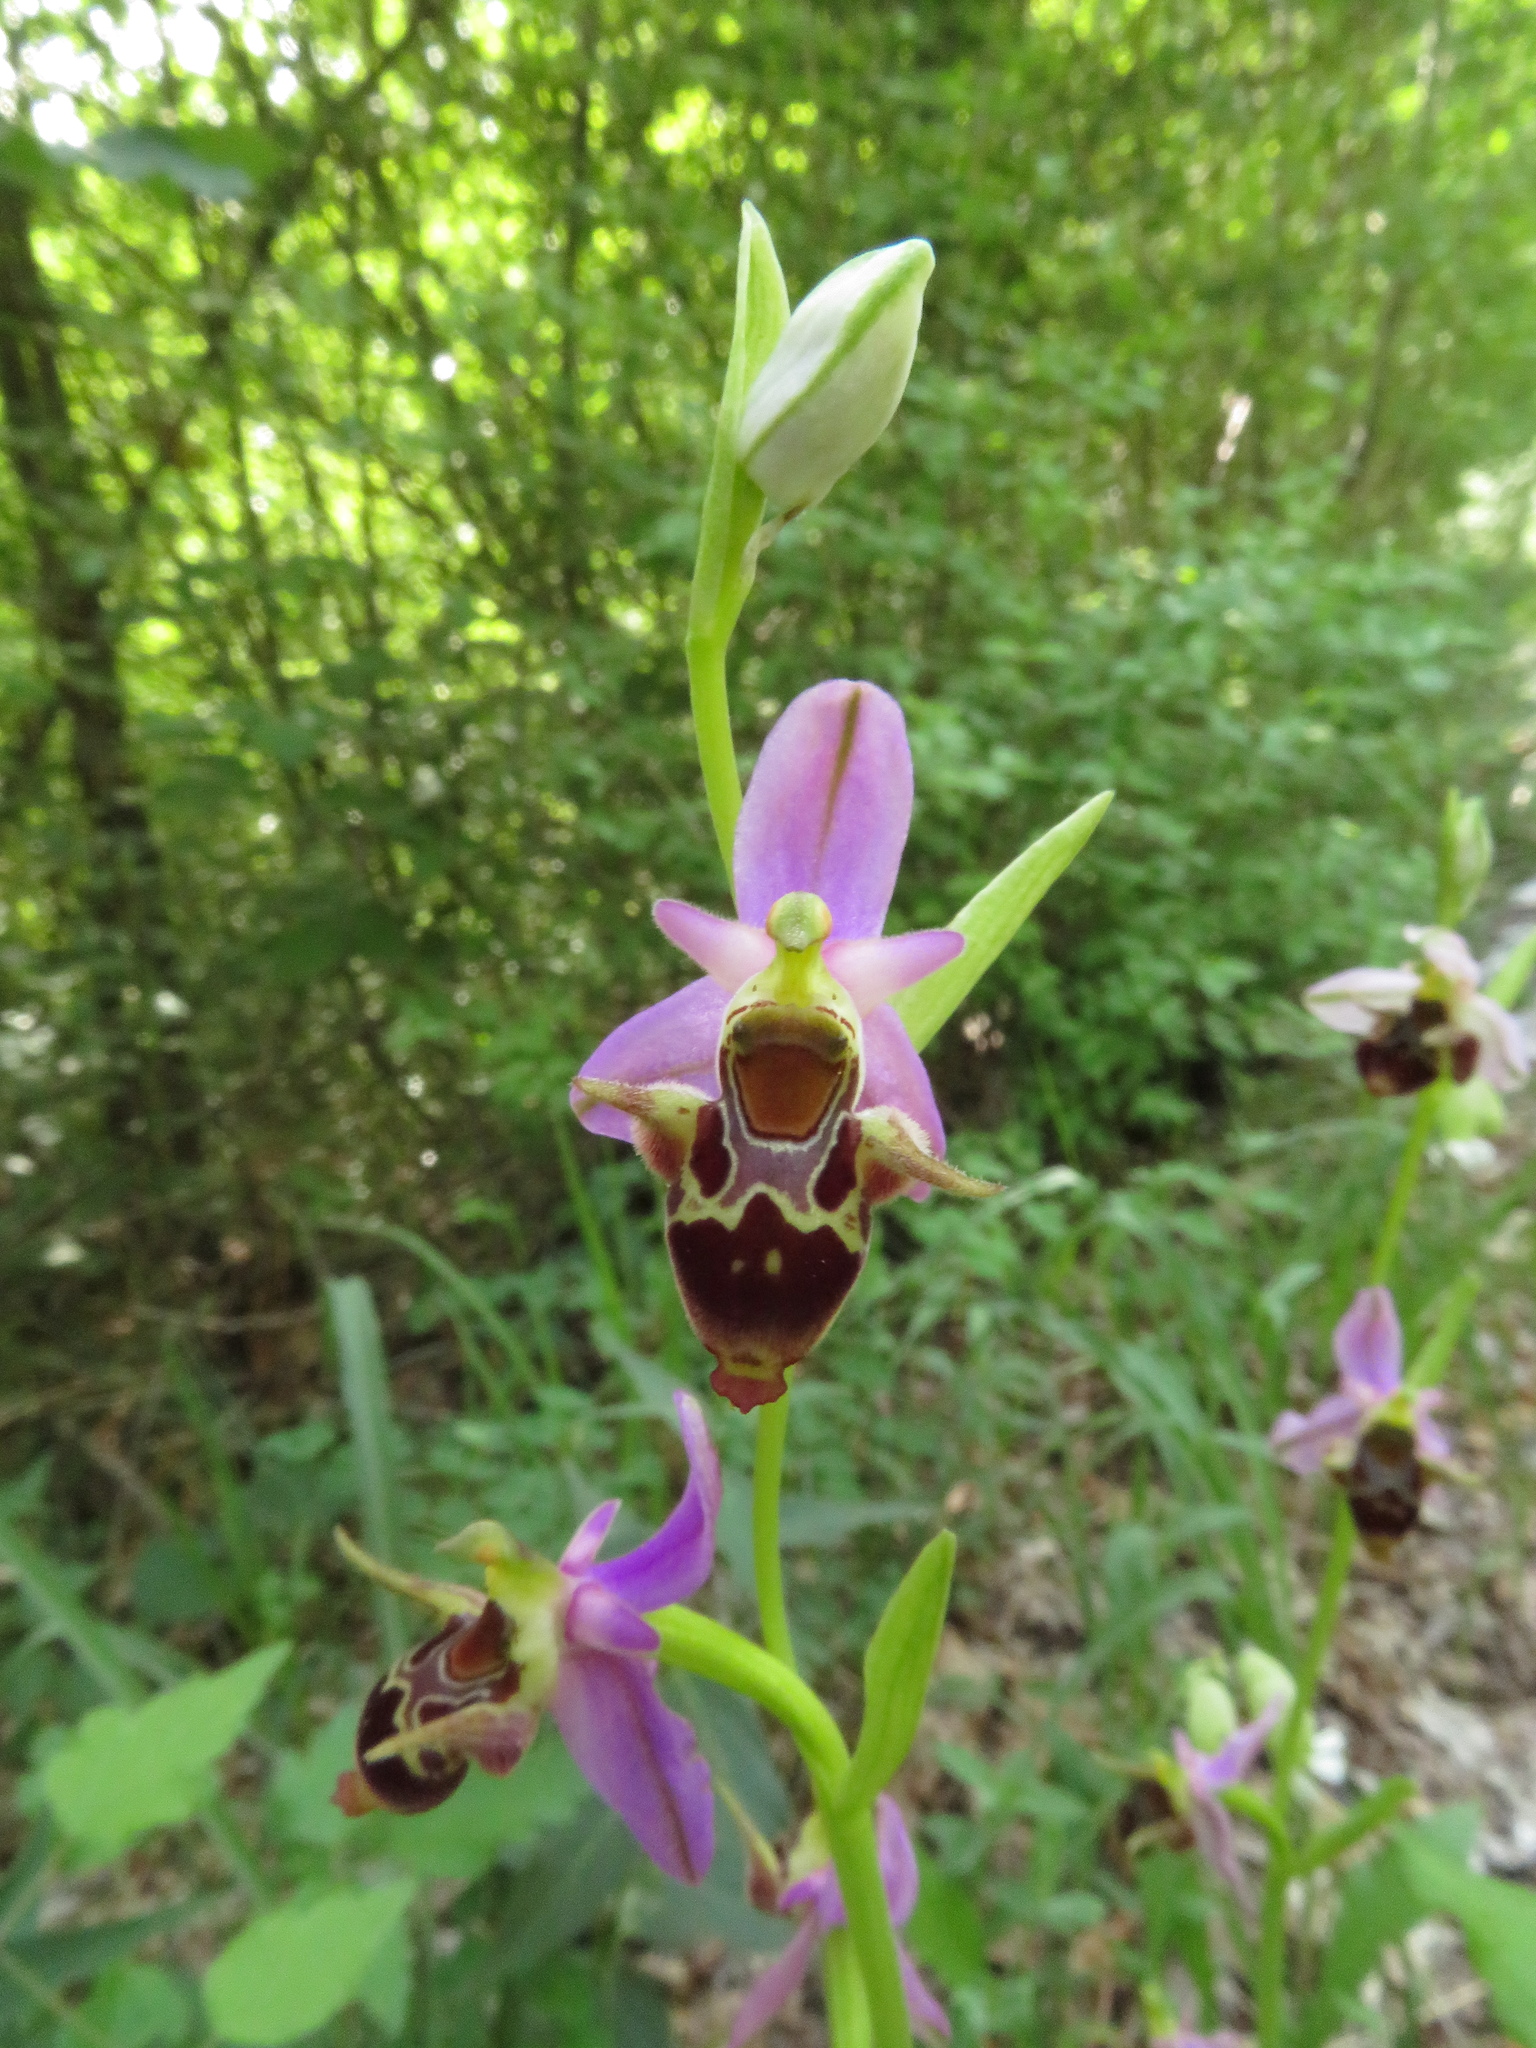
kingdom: Plantae
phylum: Tracheophyta
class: Liliopsida
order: Asparagales
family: Orchidaceae
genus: Ophrys
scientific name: Ophrys
